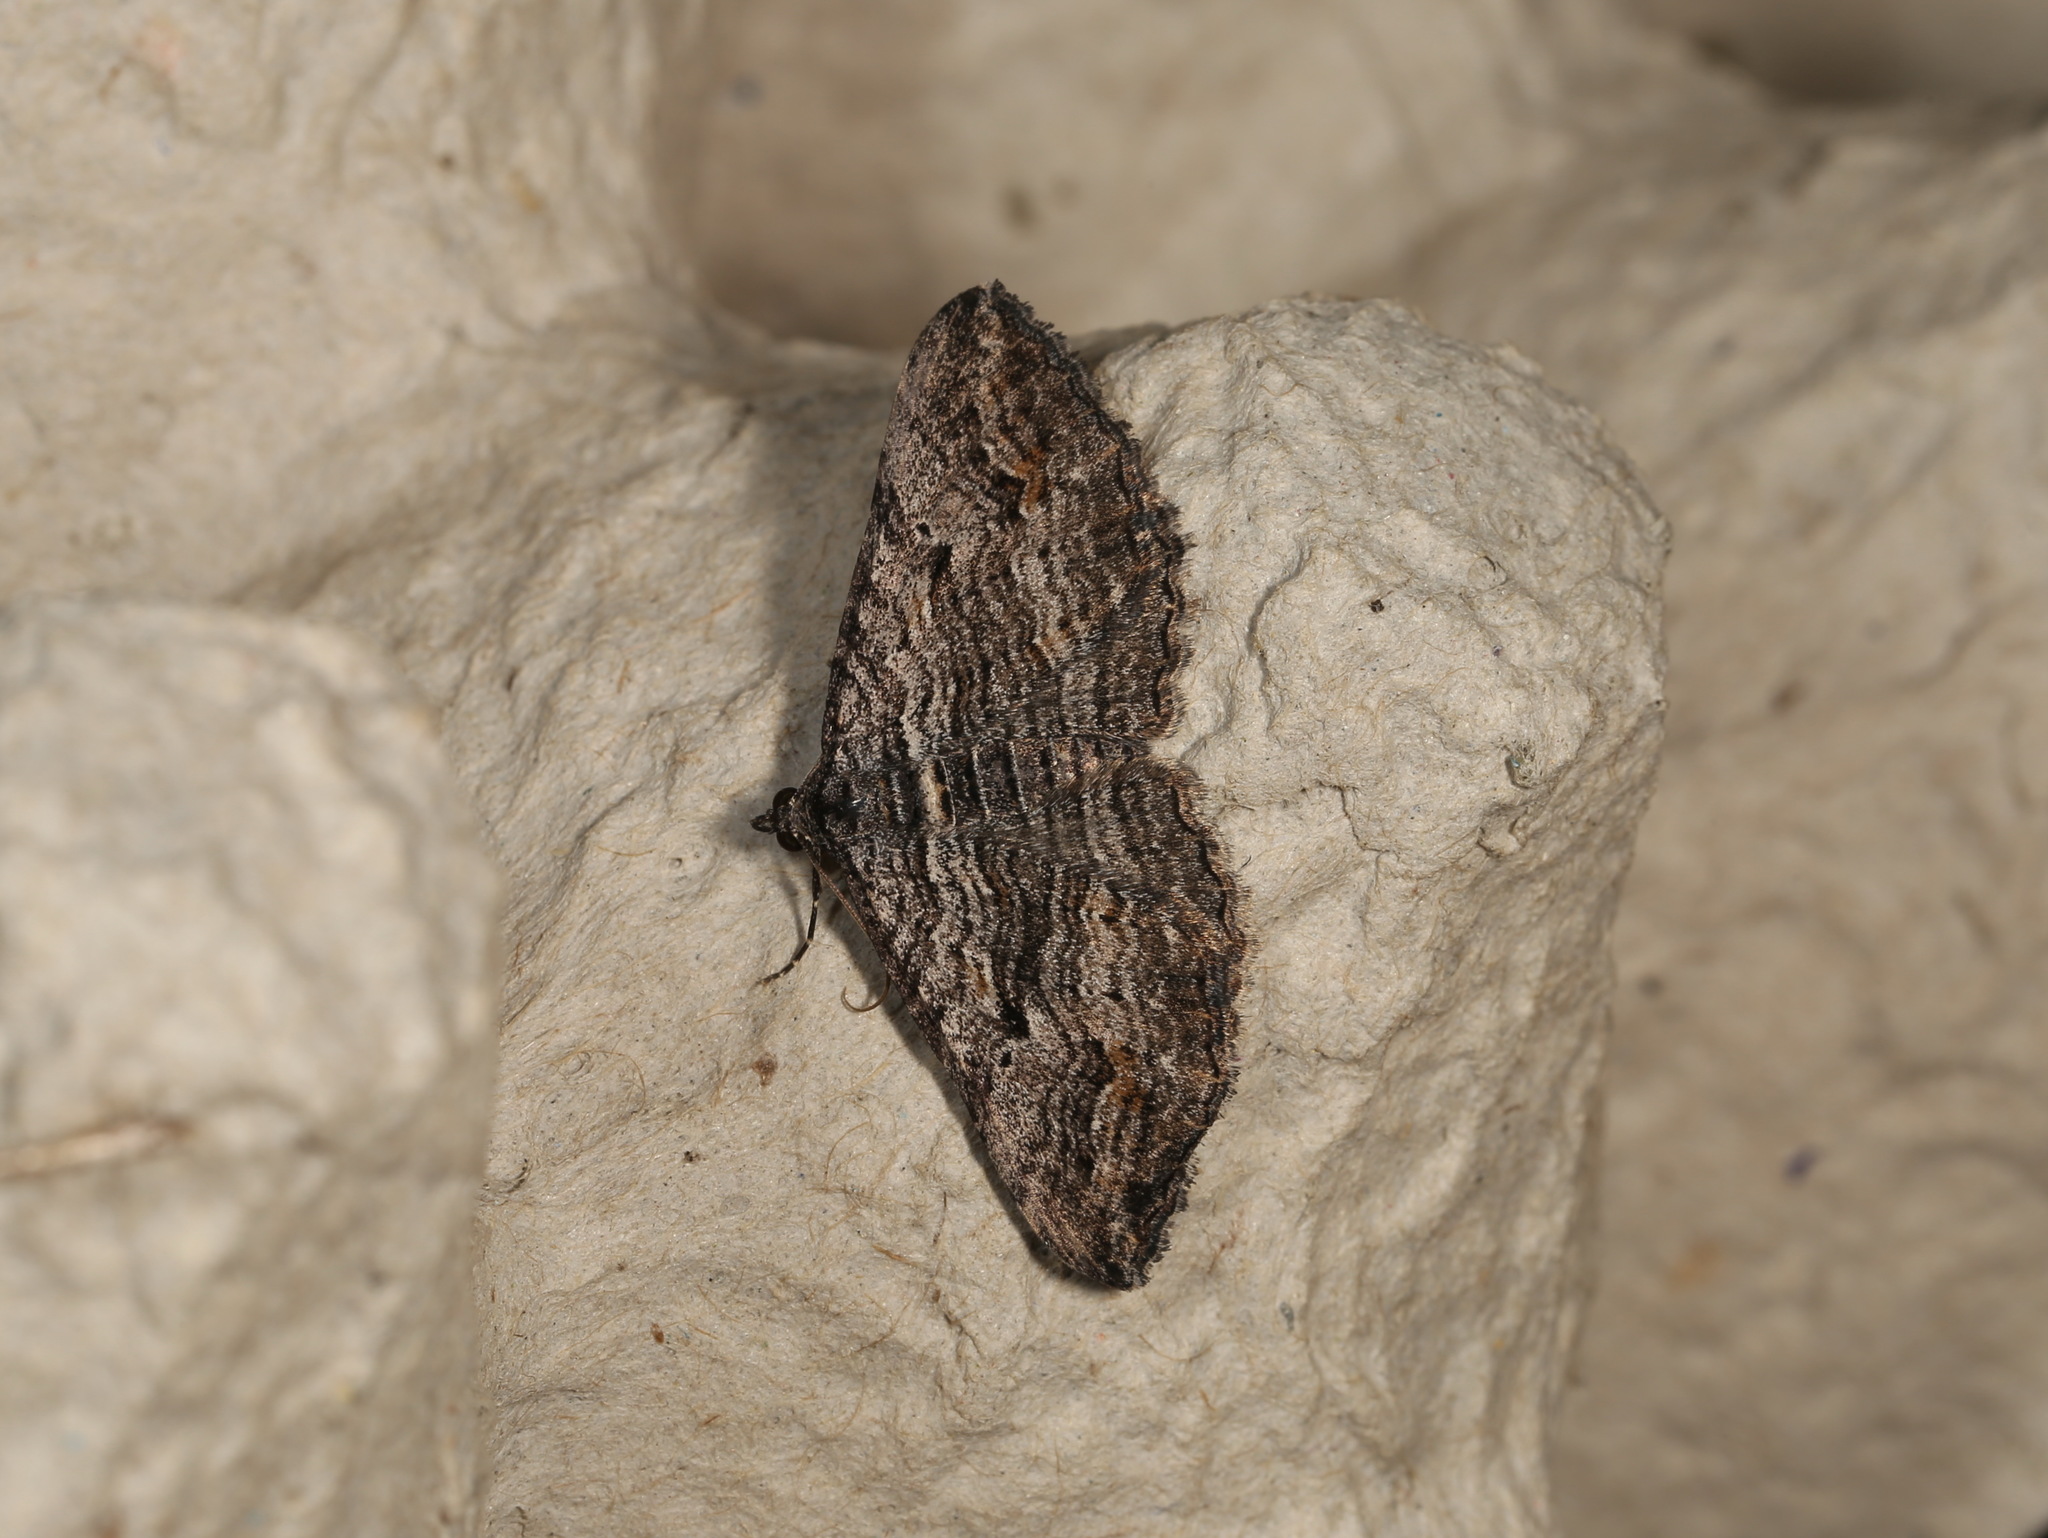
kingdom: Animalia
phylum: Arthropoda
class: Insecta
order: Lepidoptera
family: Geometridae
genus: Chrysolarentia
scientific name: Chrysolarentia severata
